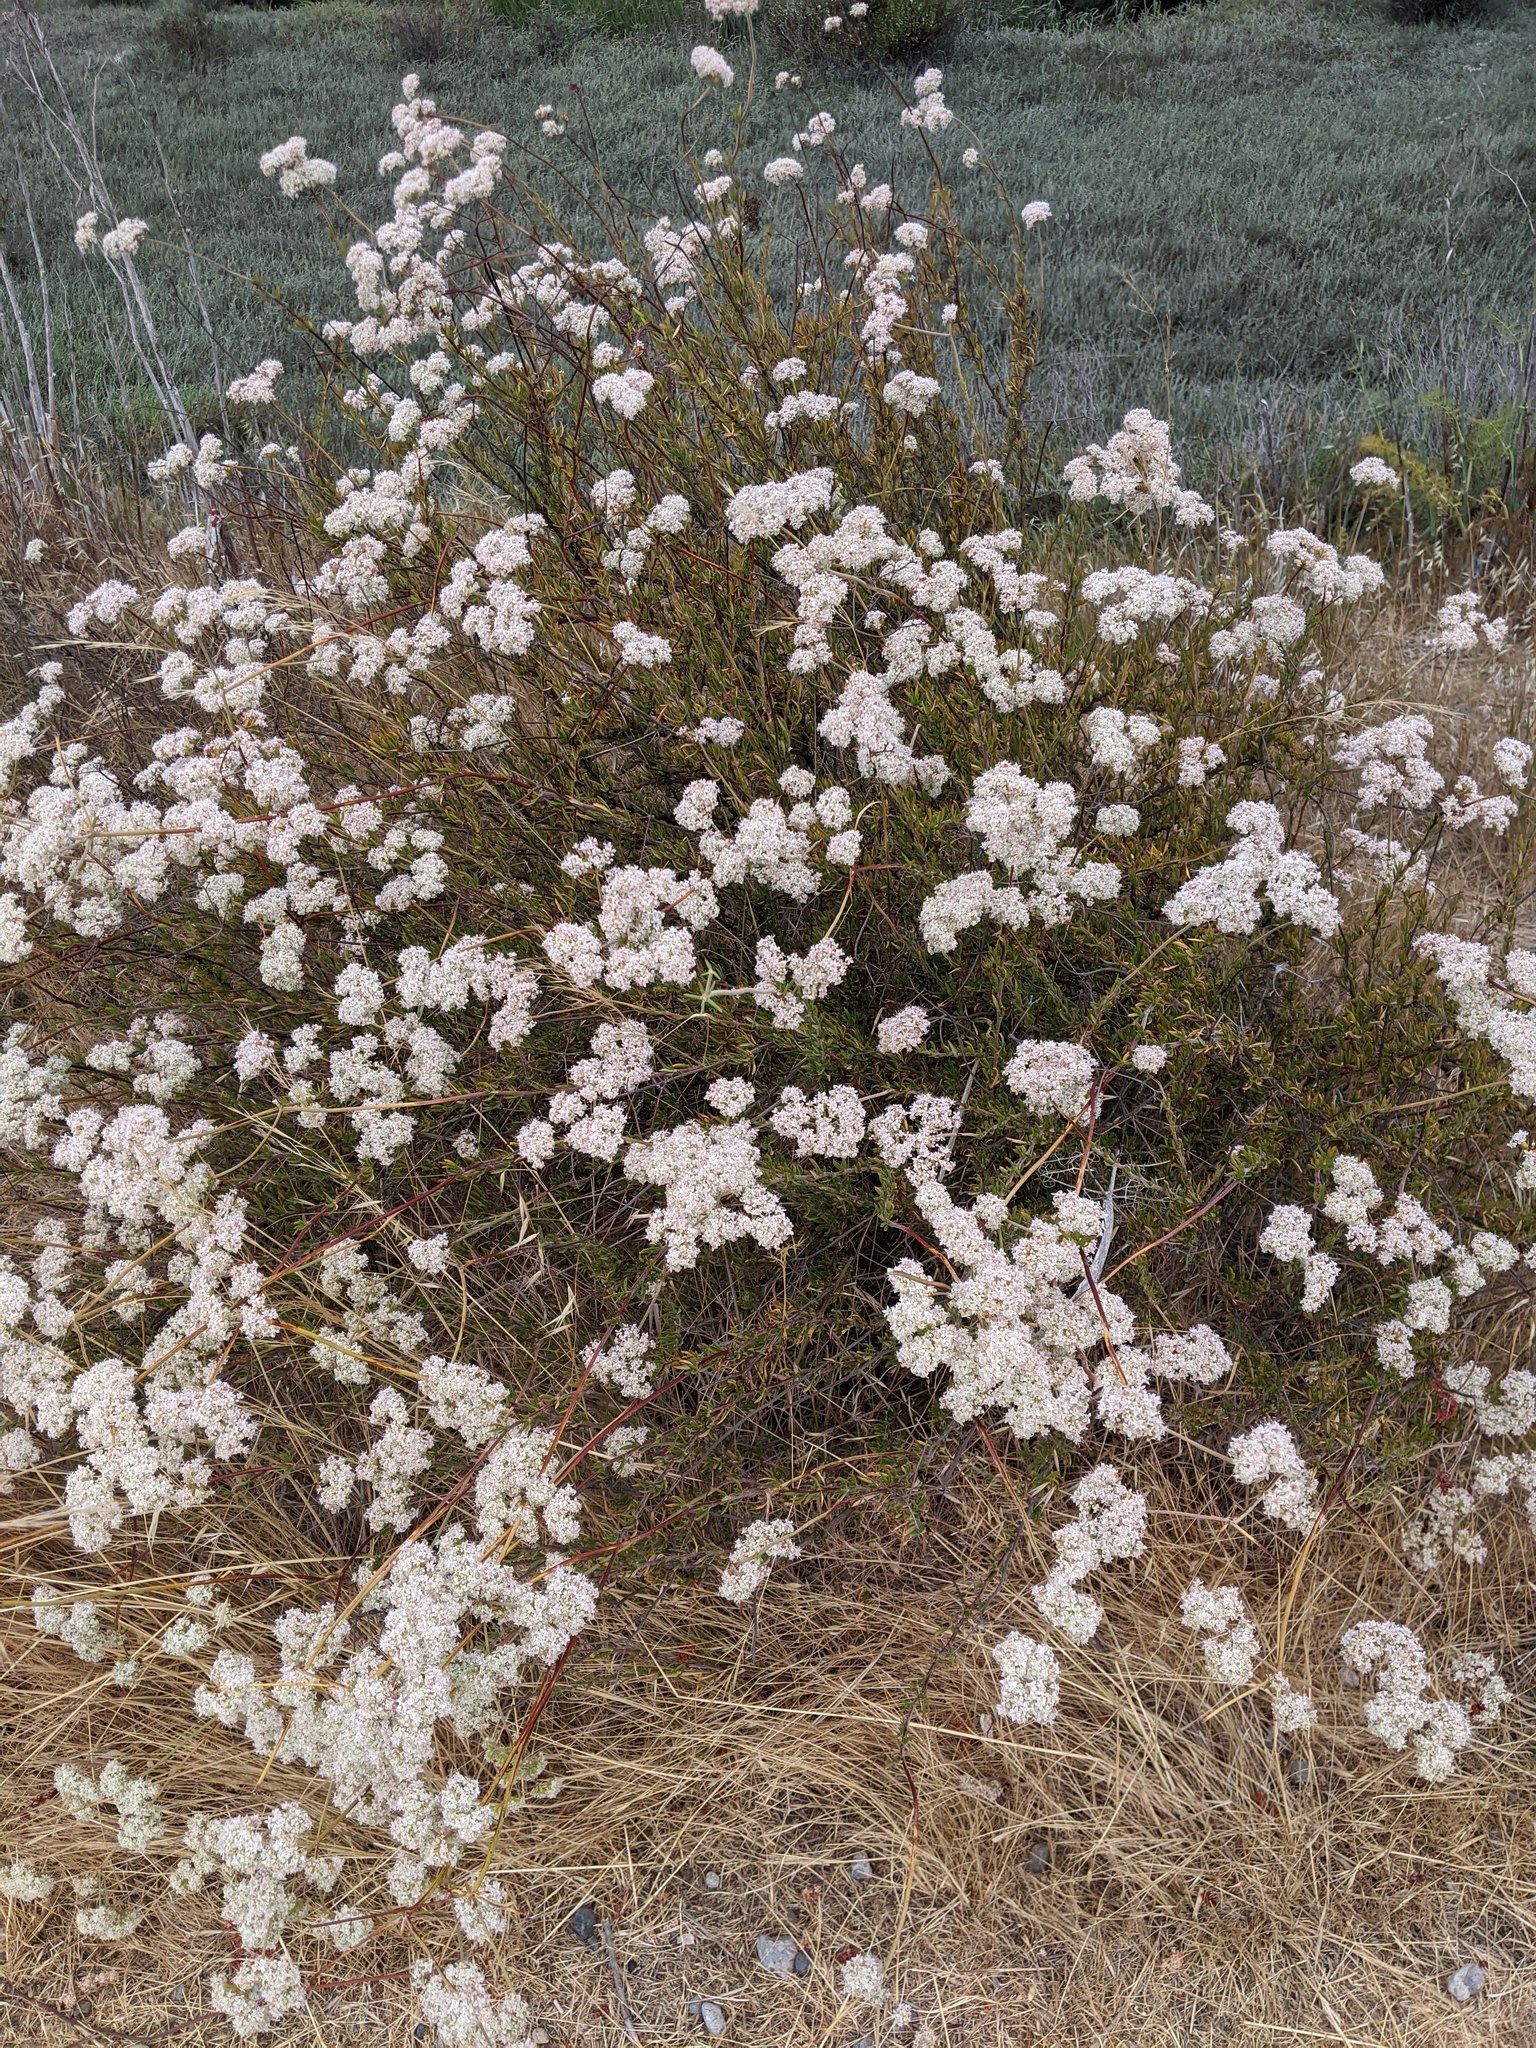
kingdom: Plantae
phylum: Tracheophyta
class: Magnoliopsida
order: Caryophyllales
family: Polygonaceae
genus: Eriogonum
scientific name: Eriogonum fasciculatum
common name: California wild buckwheat
